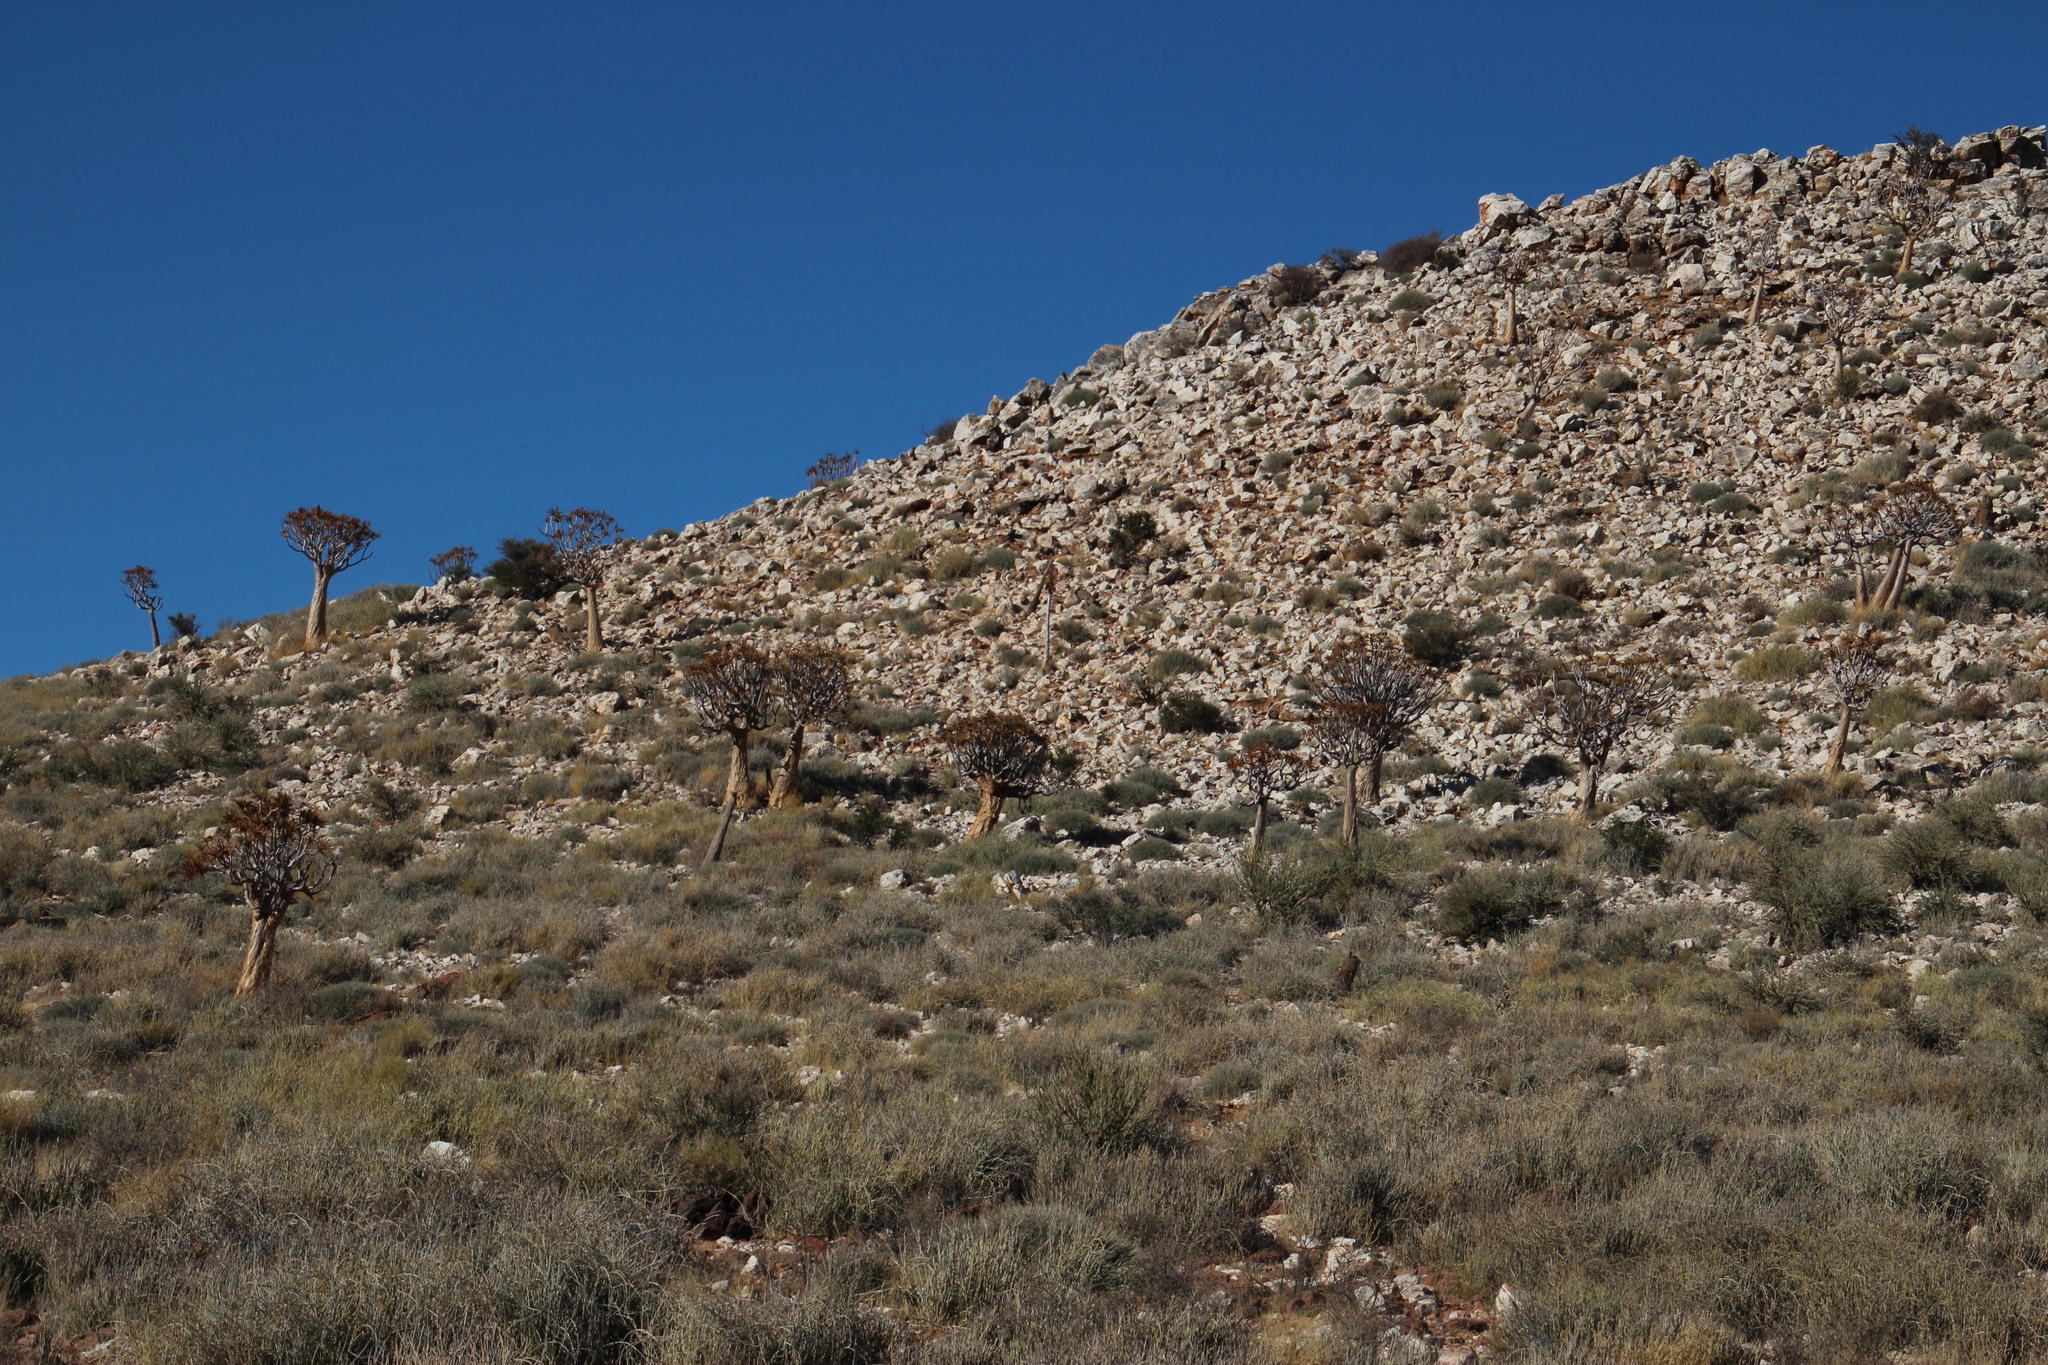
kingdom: Plantae
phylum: Tracheophyta
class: Liliopsida
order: Asparagales
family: Asphodelaceae
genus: Aloidendron
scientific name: Aloidendron dichotomum
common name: Quiver tree
